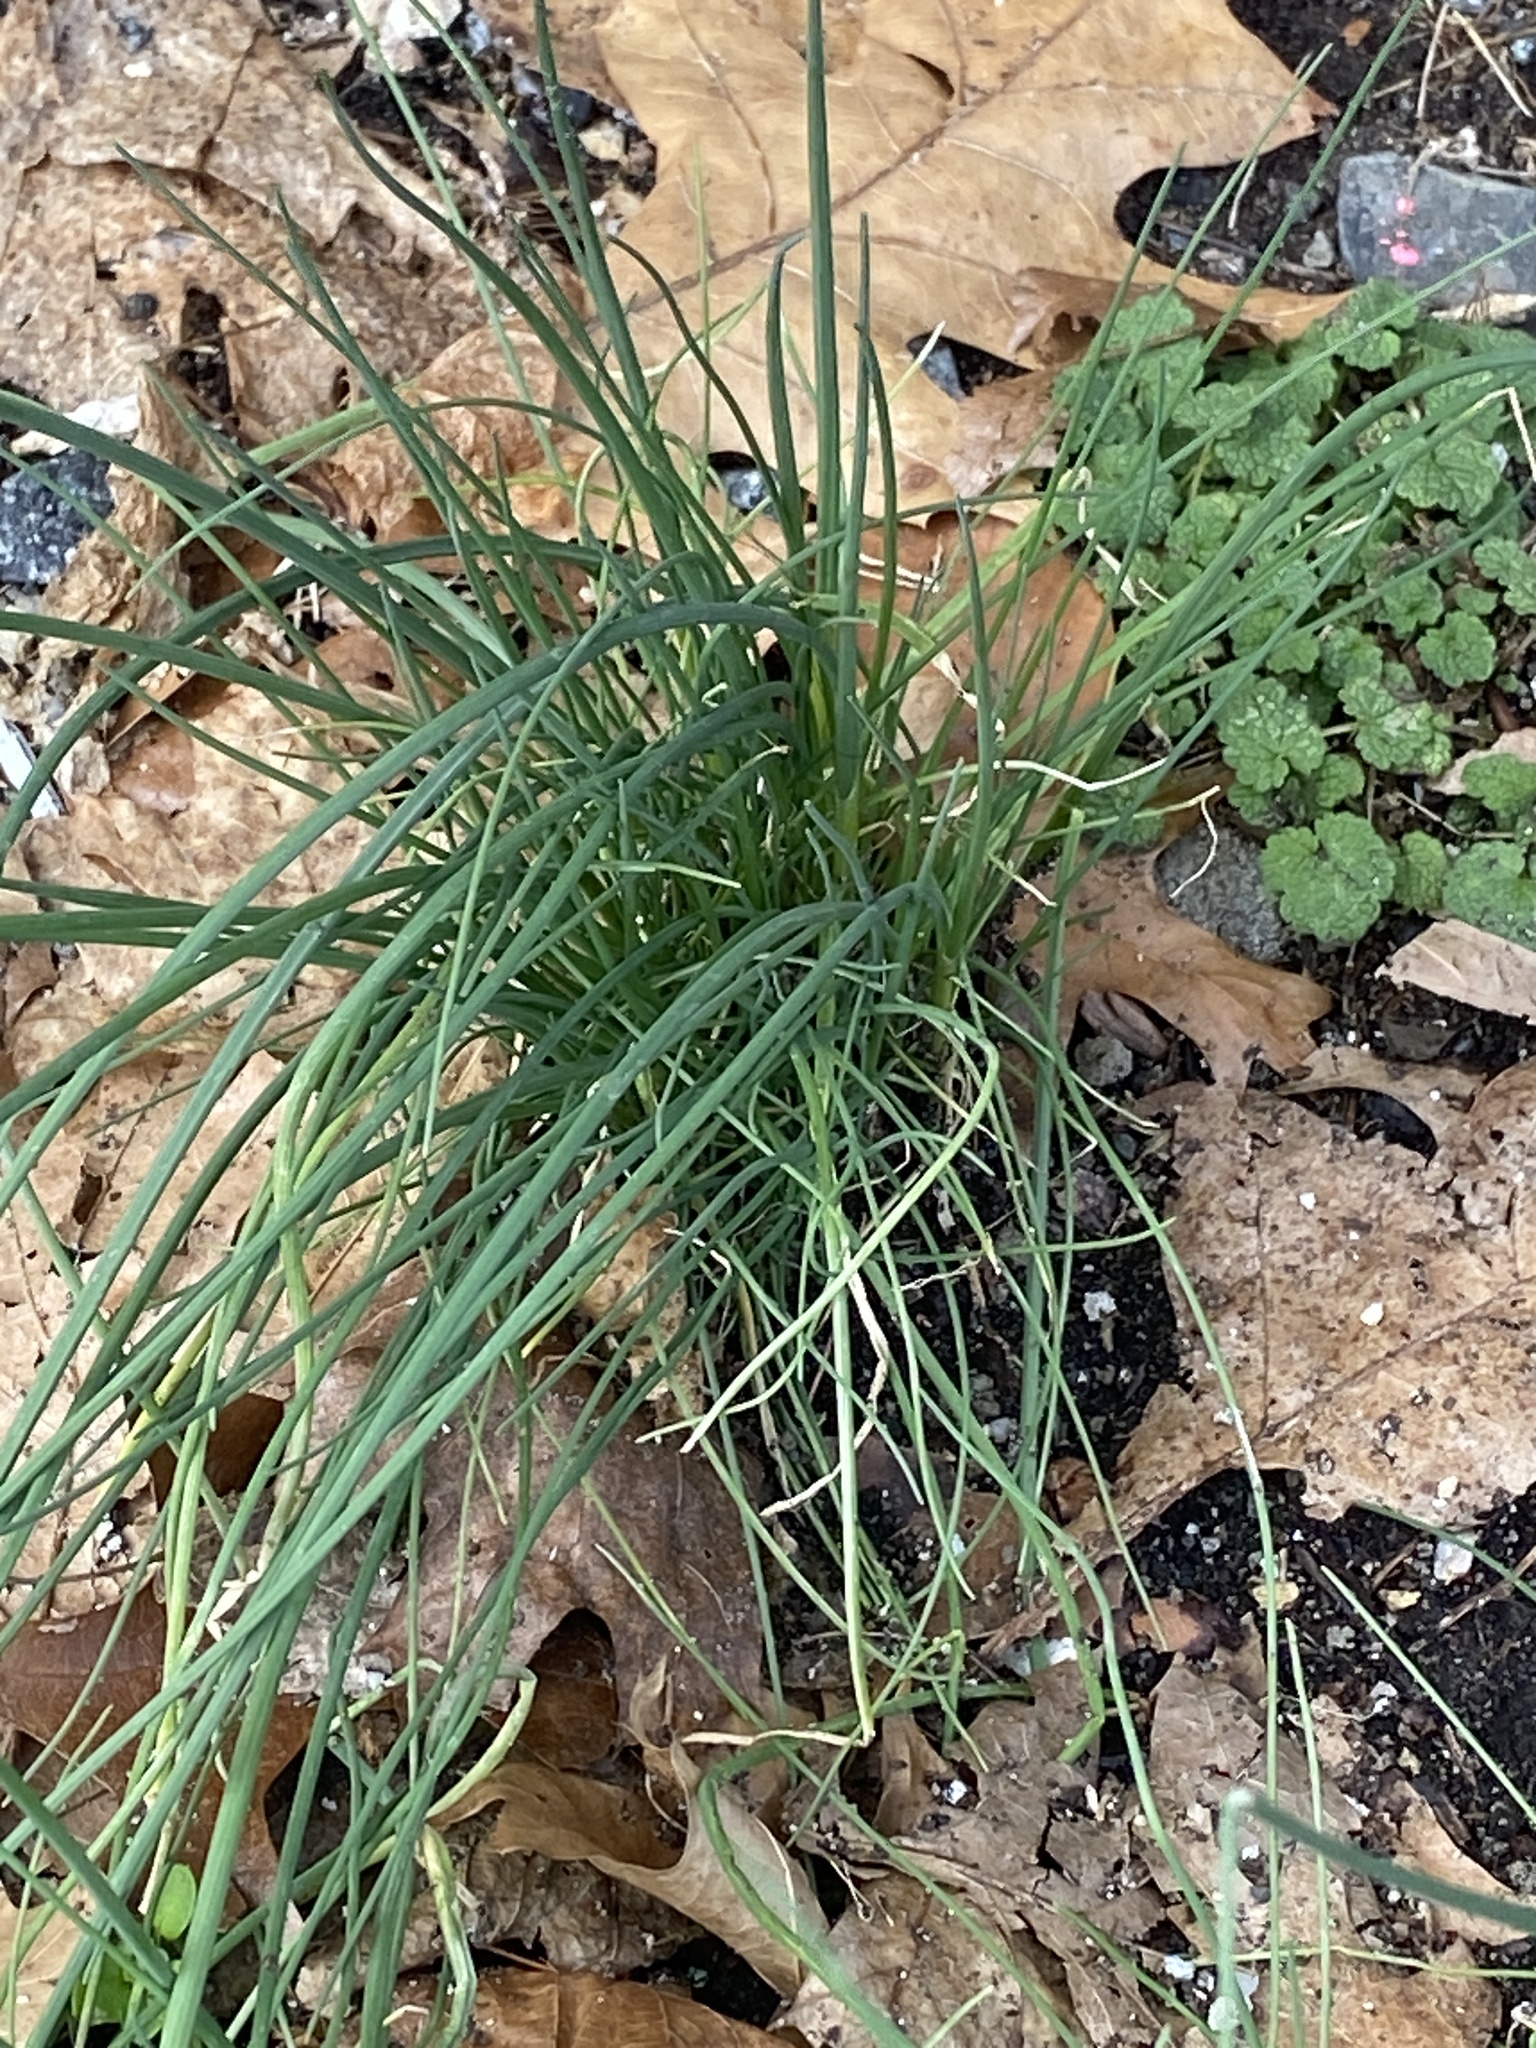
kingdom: Plantae
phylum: Tracheophyta
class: Liliopsida
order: Asparagales
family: Amaryllidaceae
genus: Allium
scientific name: Allium vineale
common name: Crow garlic
